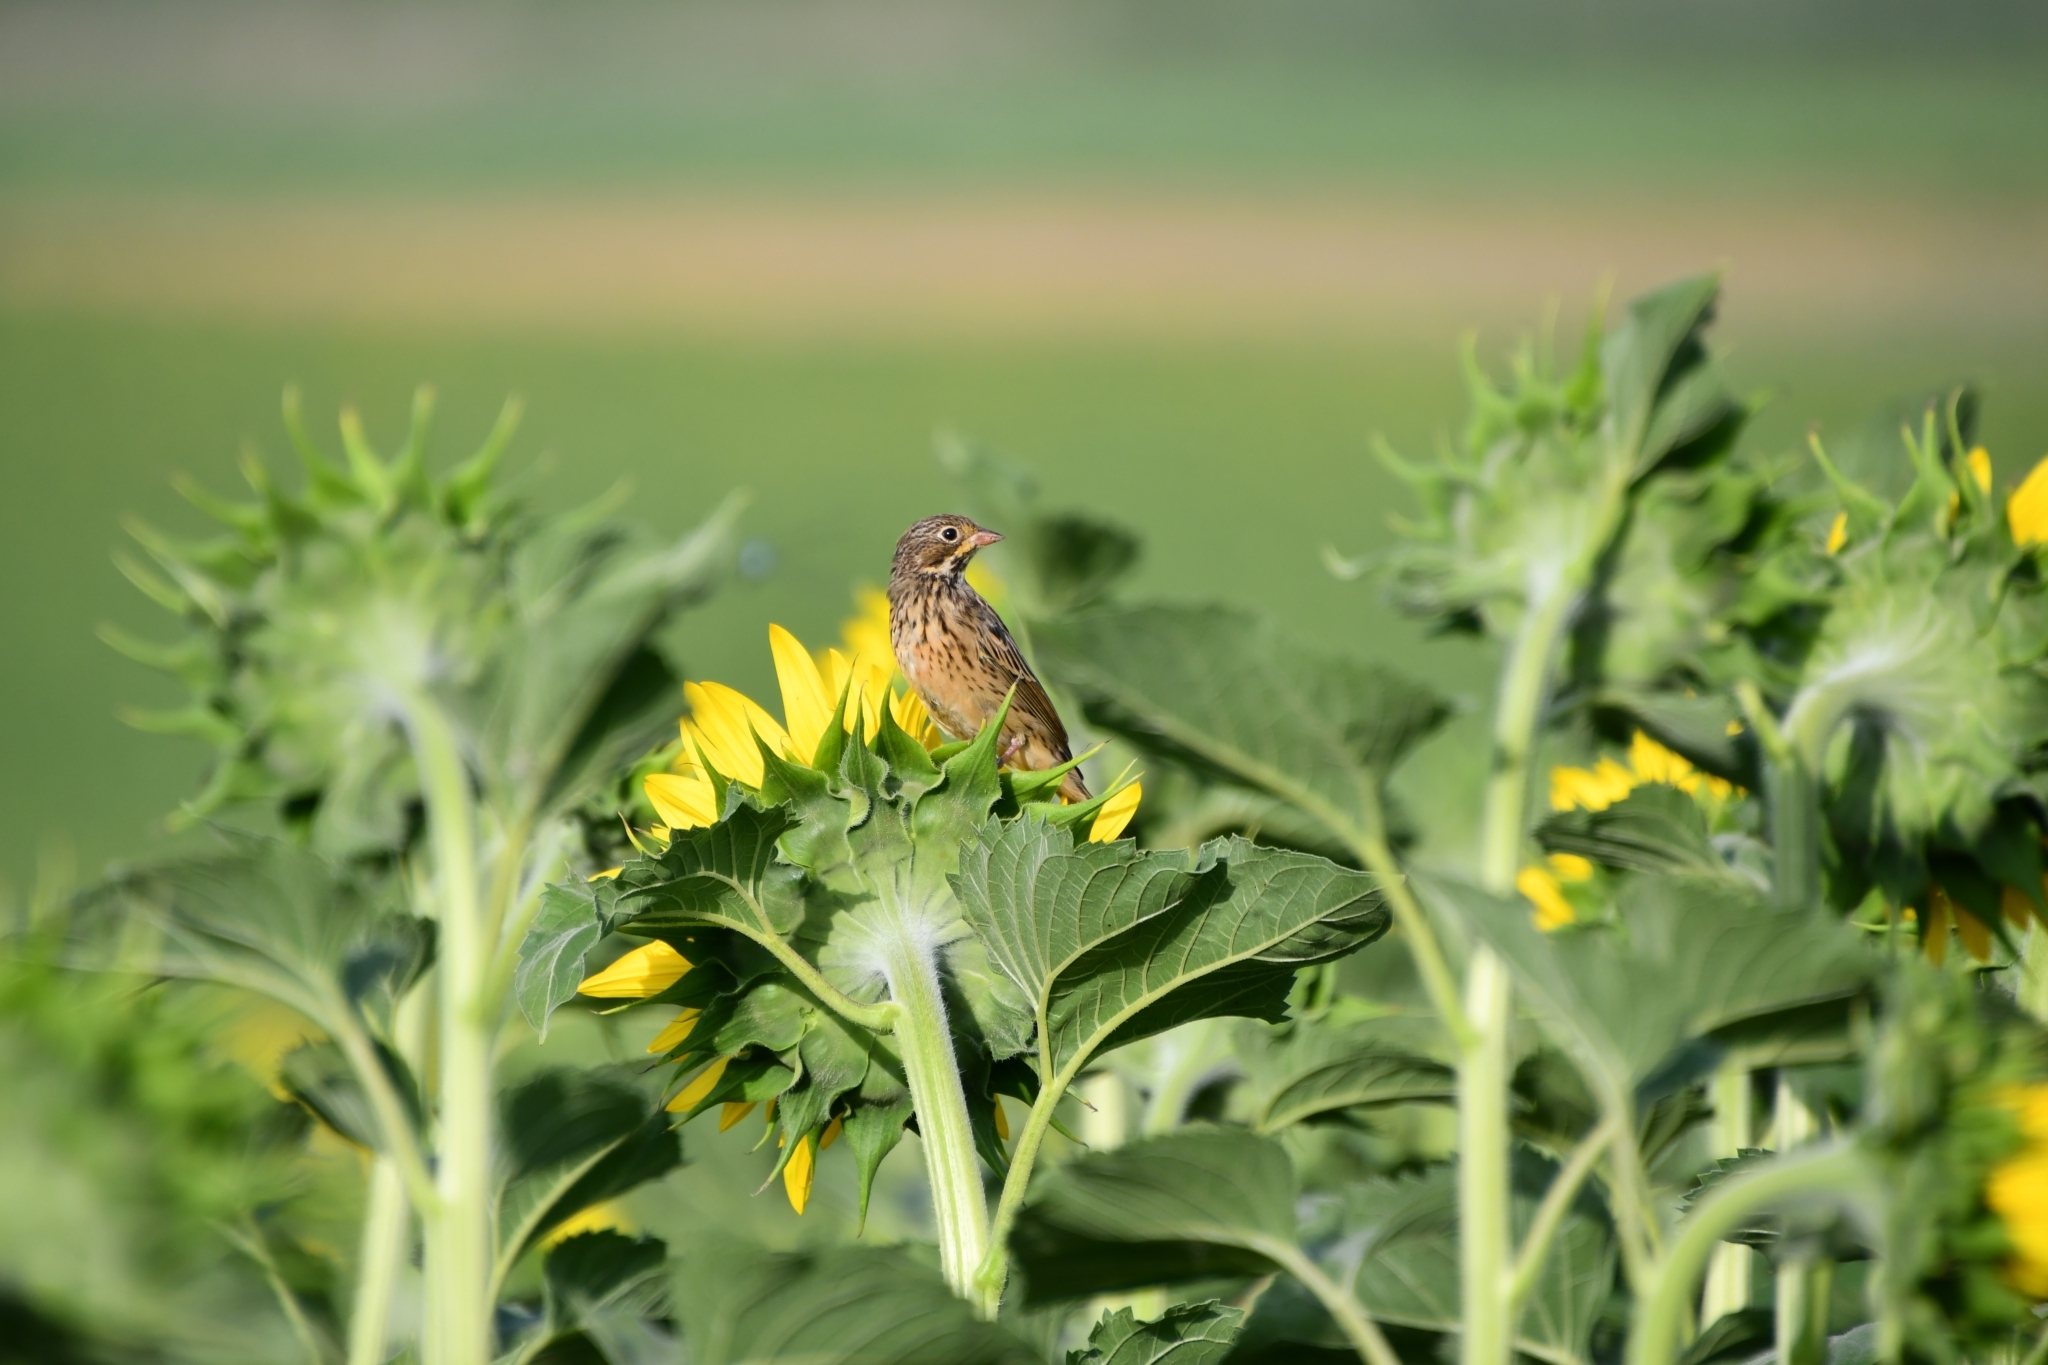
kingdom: Animalia
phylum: Chordata
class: Aves
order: Passeriformes
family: Emberizidae
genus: Emberiza
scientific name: Emberiza hortulana
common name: Ortolan bunting
